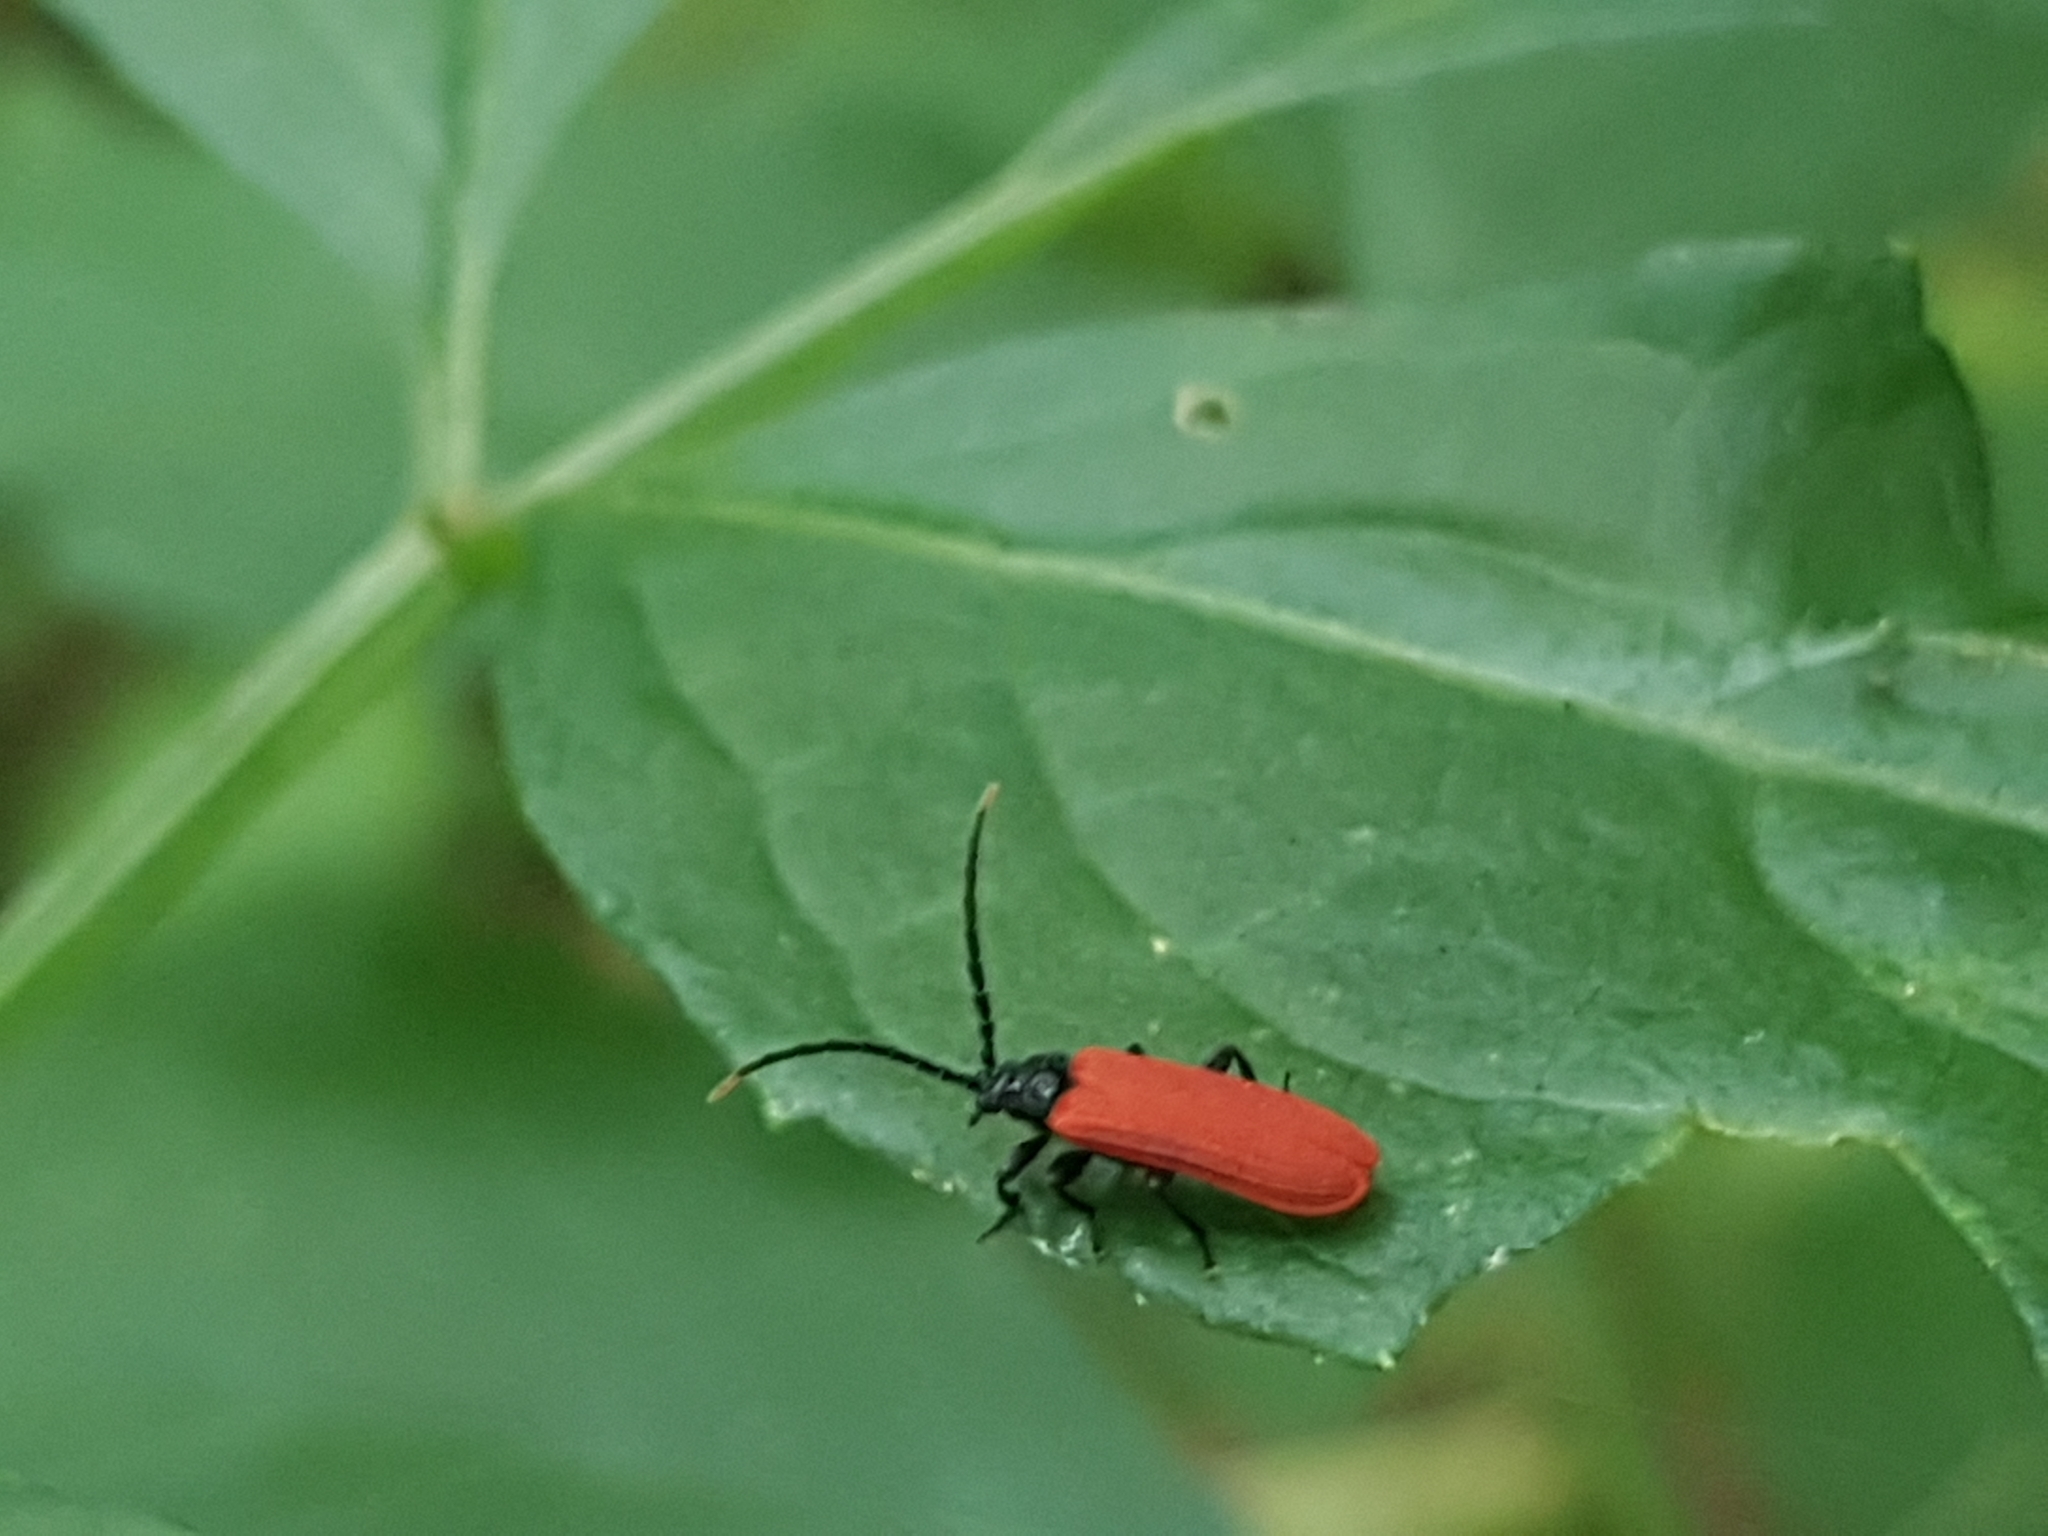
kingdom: Animalia
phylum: Arthropoda
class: Insecta
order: Coleoptera
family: Lycidae
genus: Platycis
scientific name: Platycis minutus
